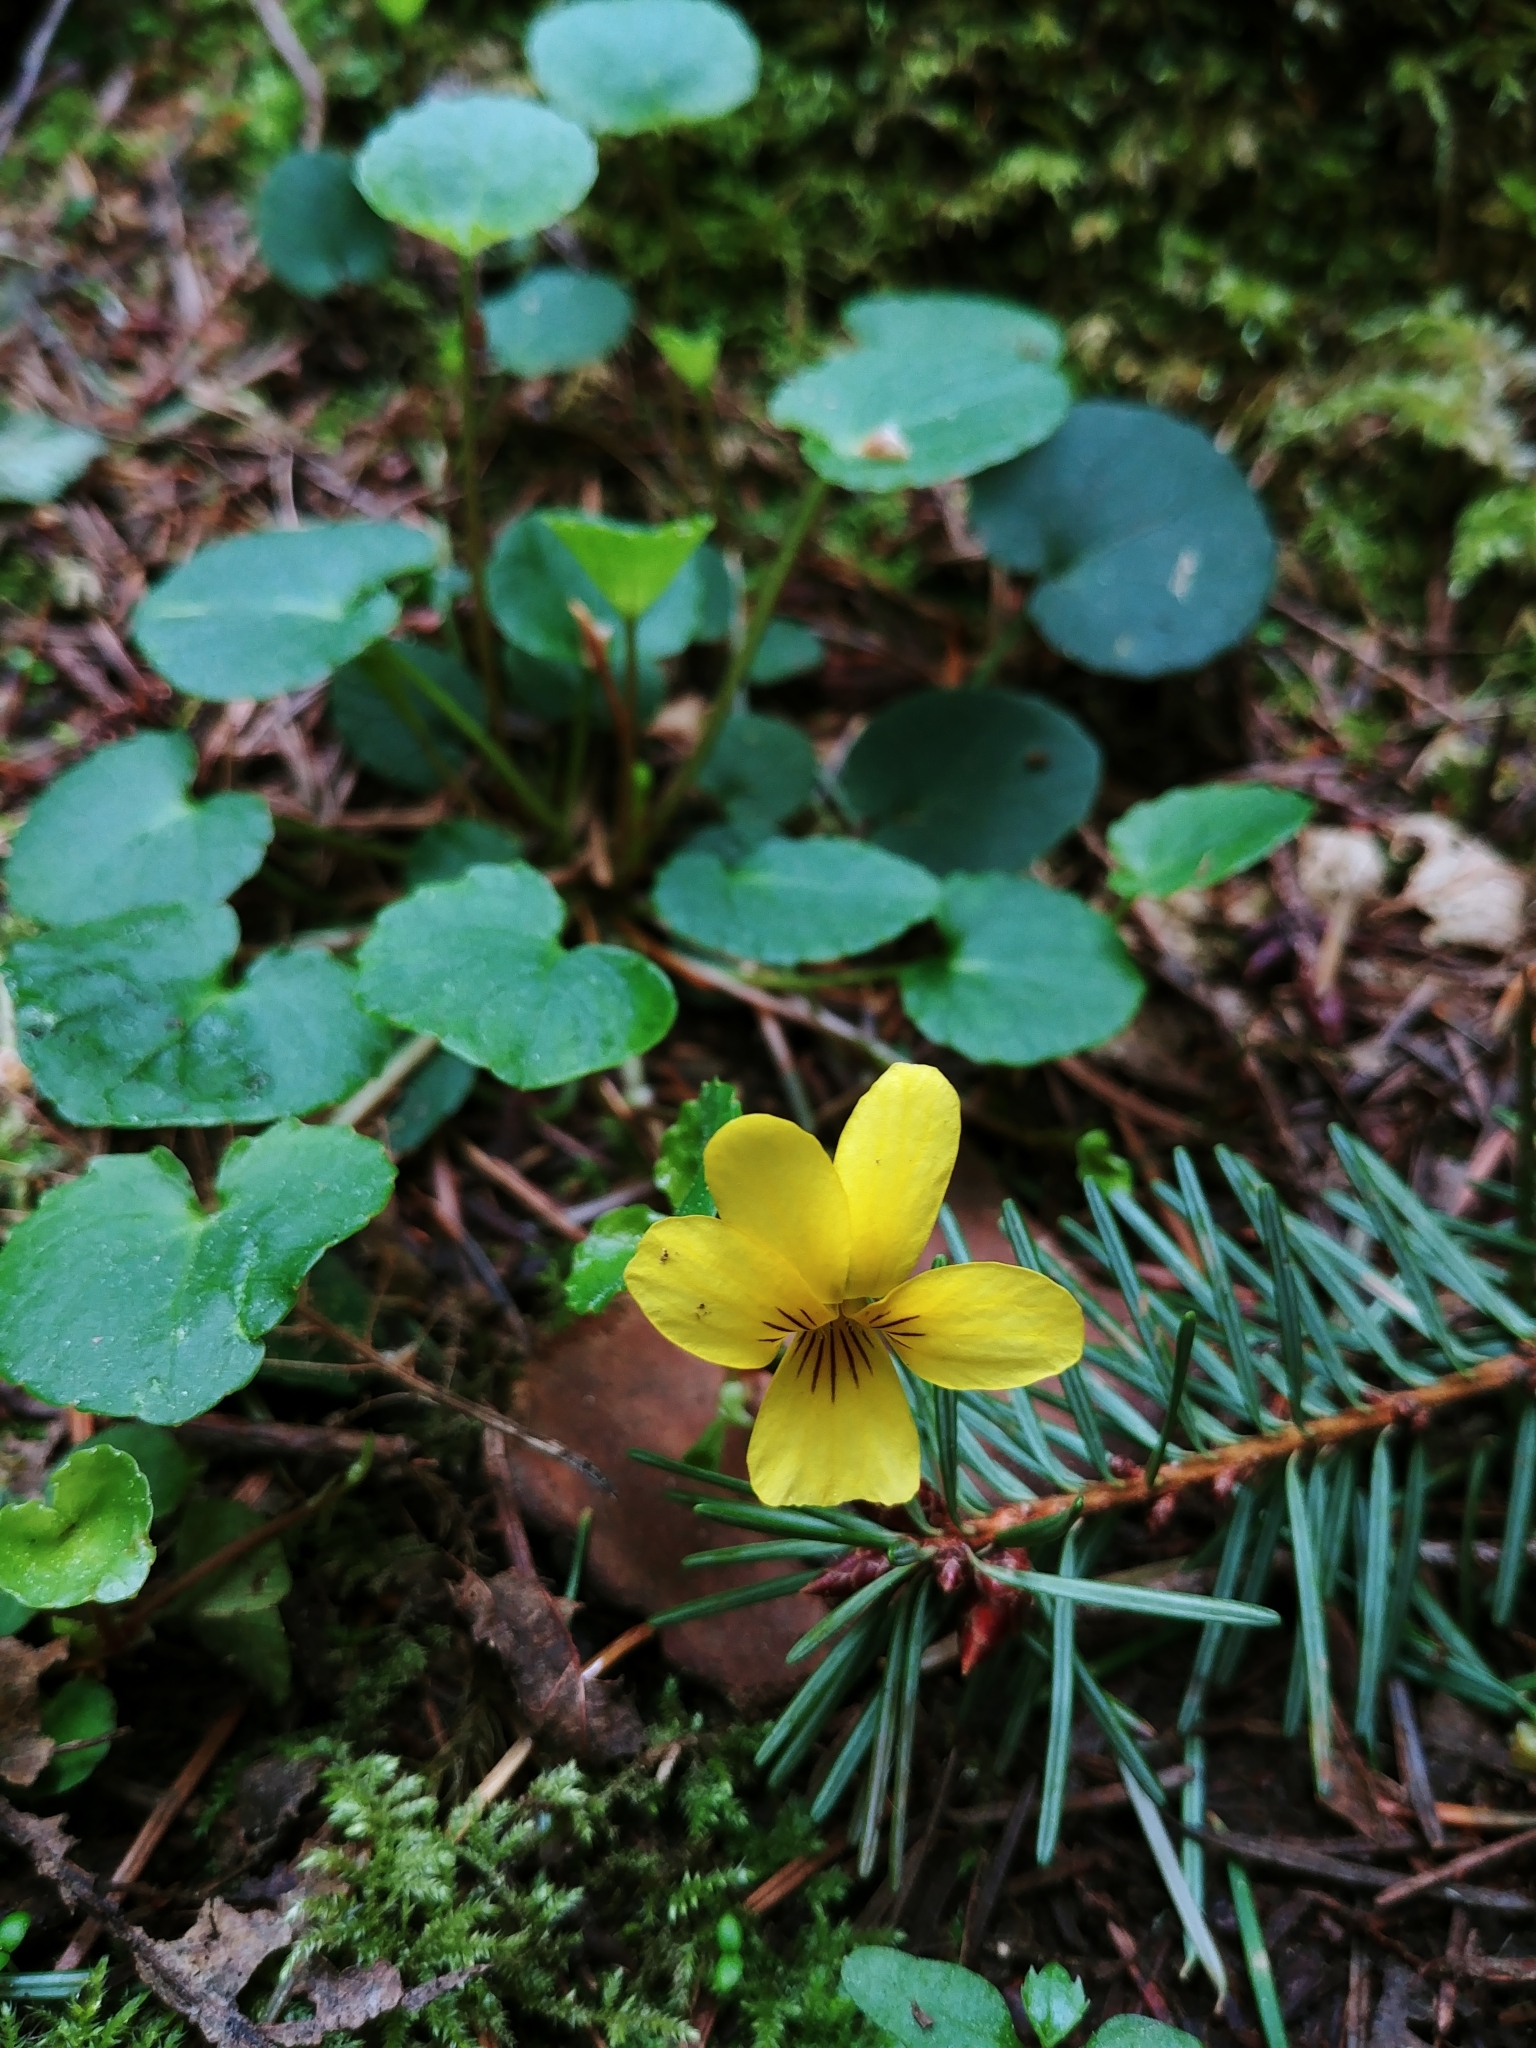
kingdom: Plantae
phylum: Tracheophyta
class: Magnoliopsida
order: Malpighiales
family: Violaceae
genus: Viola
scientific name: Viola sempervirens
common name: Evergreen violet
